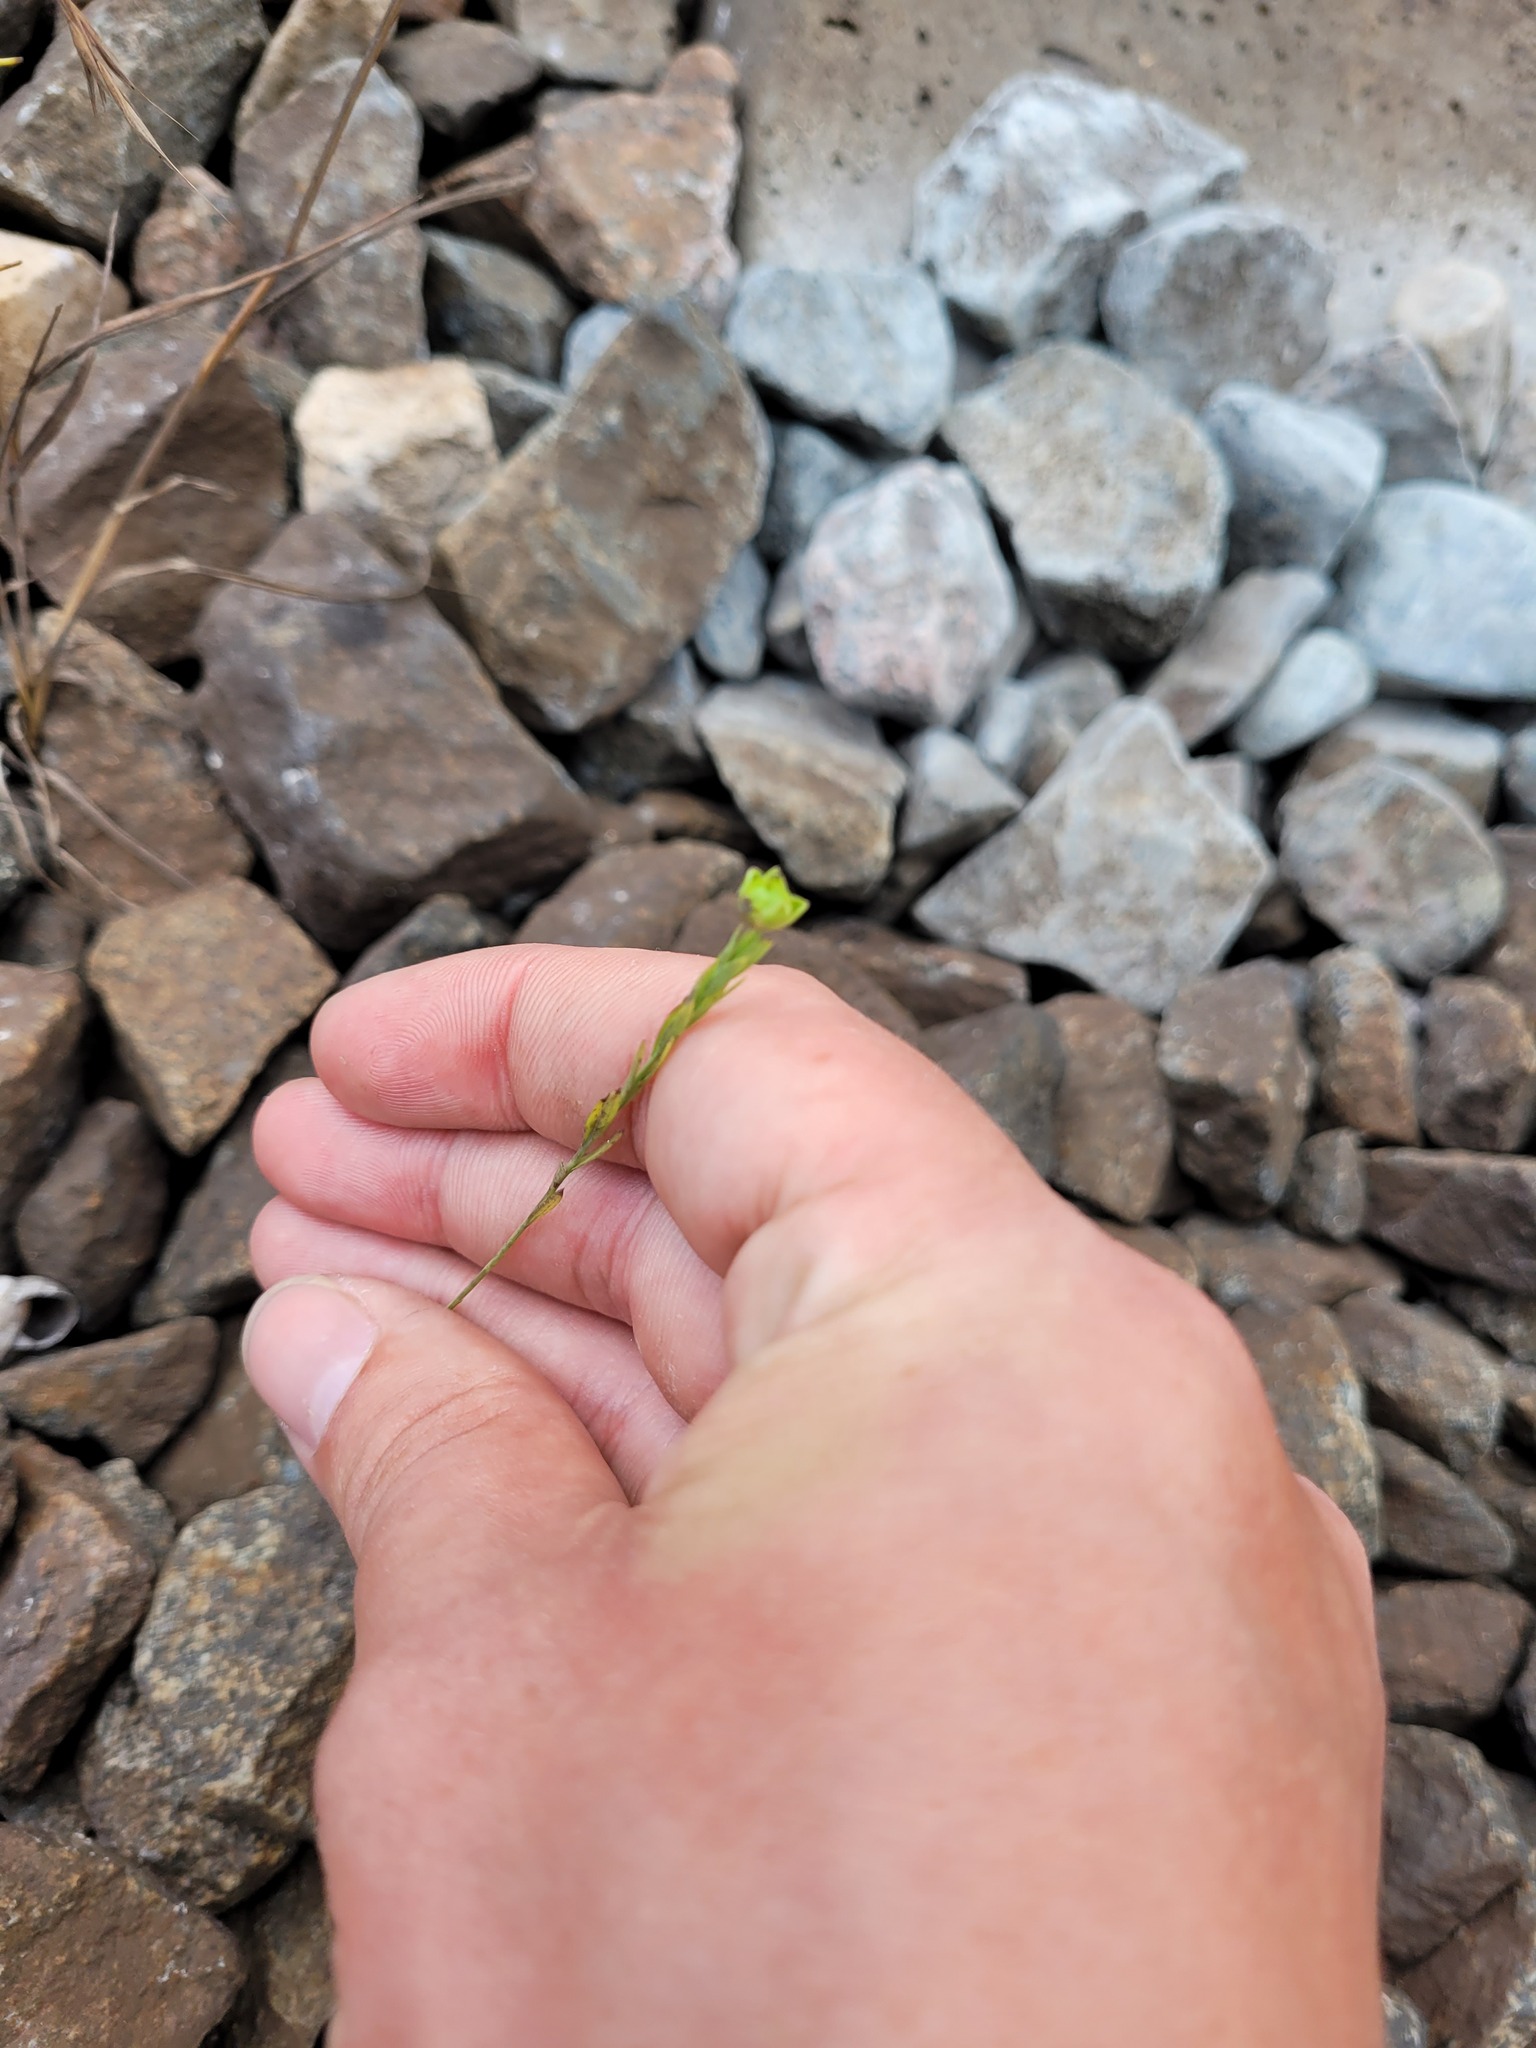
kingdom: Plantae
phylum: Tracheophyta
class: Magnoliopsida
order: Malpighiales
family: Linaceae
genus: Linum
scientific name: Linum usitatissimum
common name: Flax
